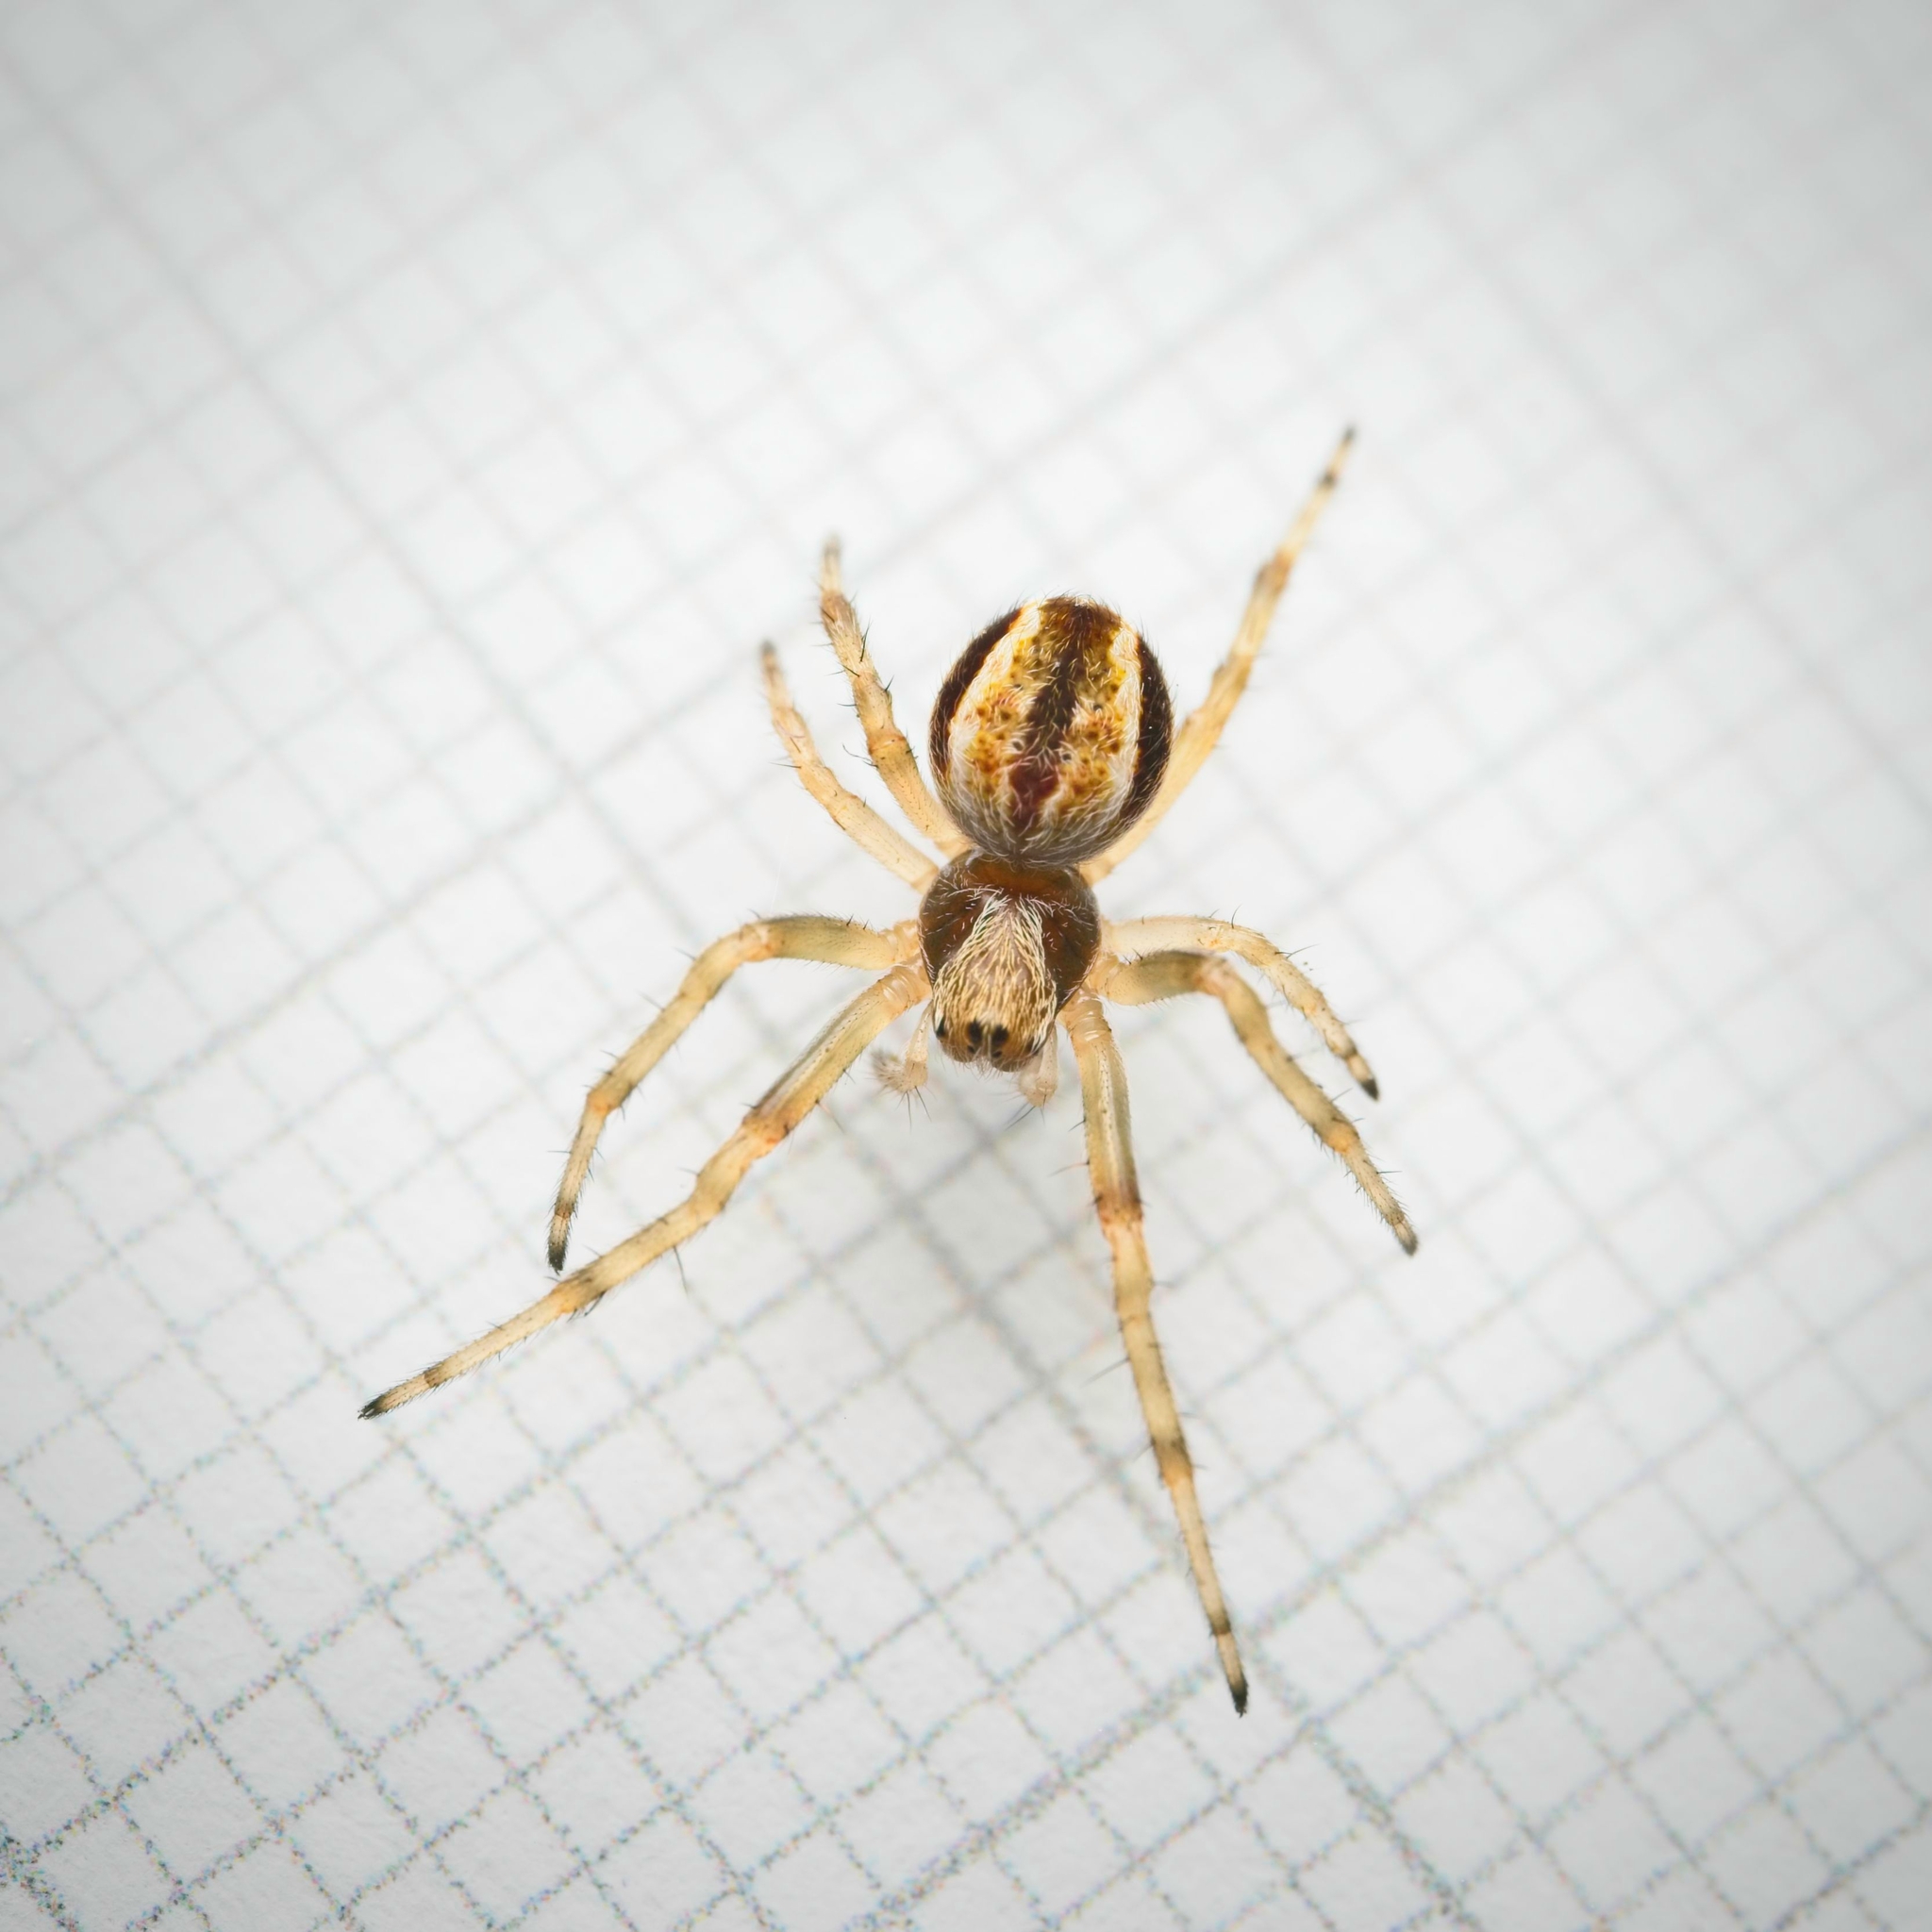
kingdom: Animalia
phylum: Arthropoda
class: Arachnida
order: Araneae
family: Araneidae
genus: Salsa
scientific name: Salsa fuliginata
